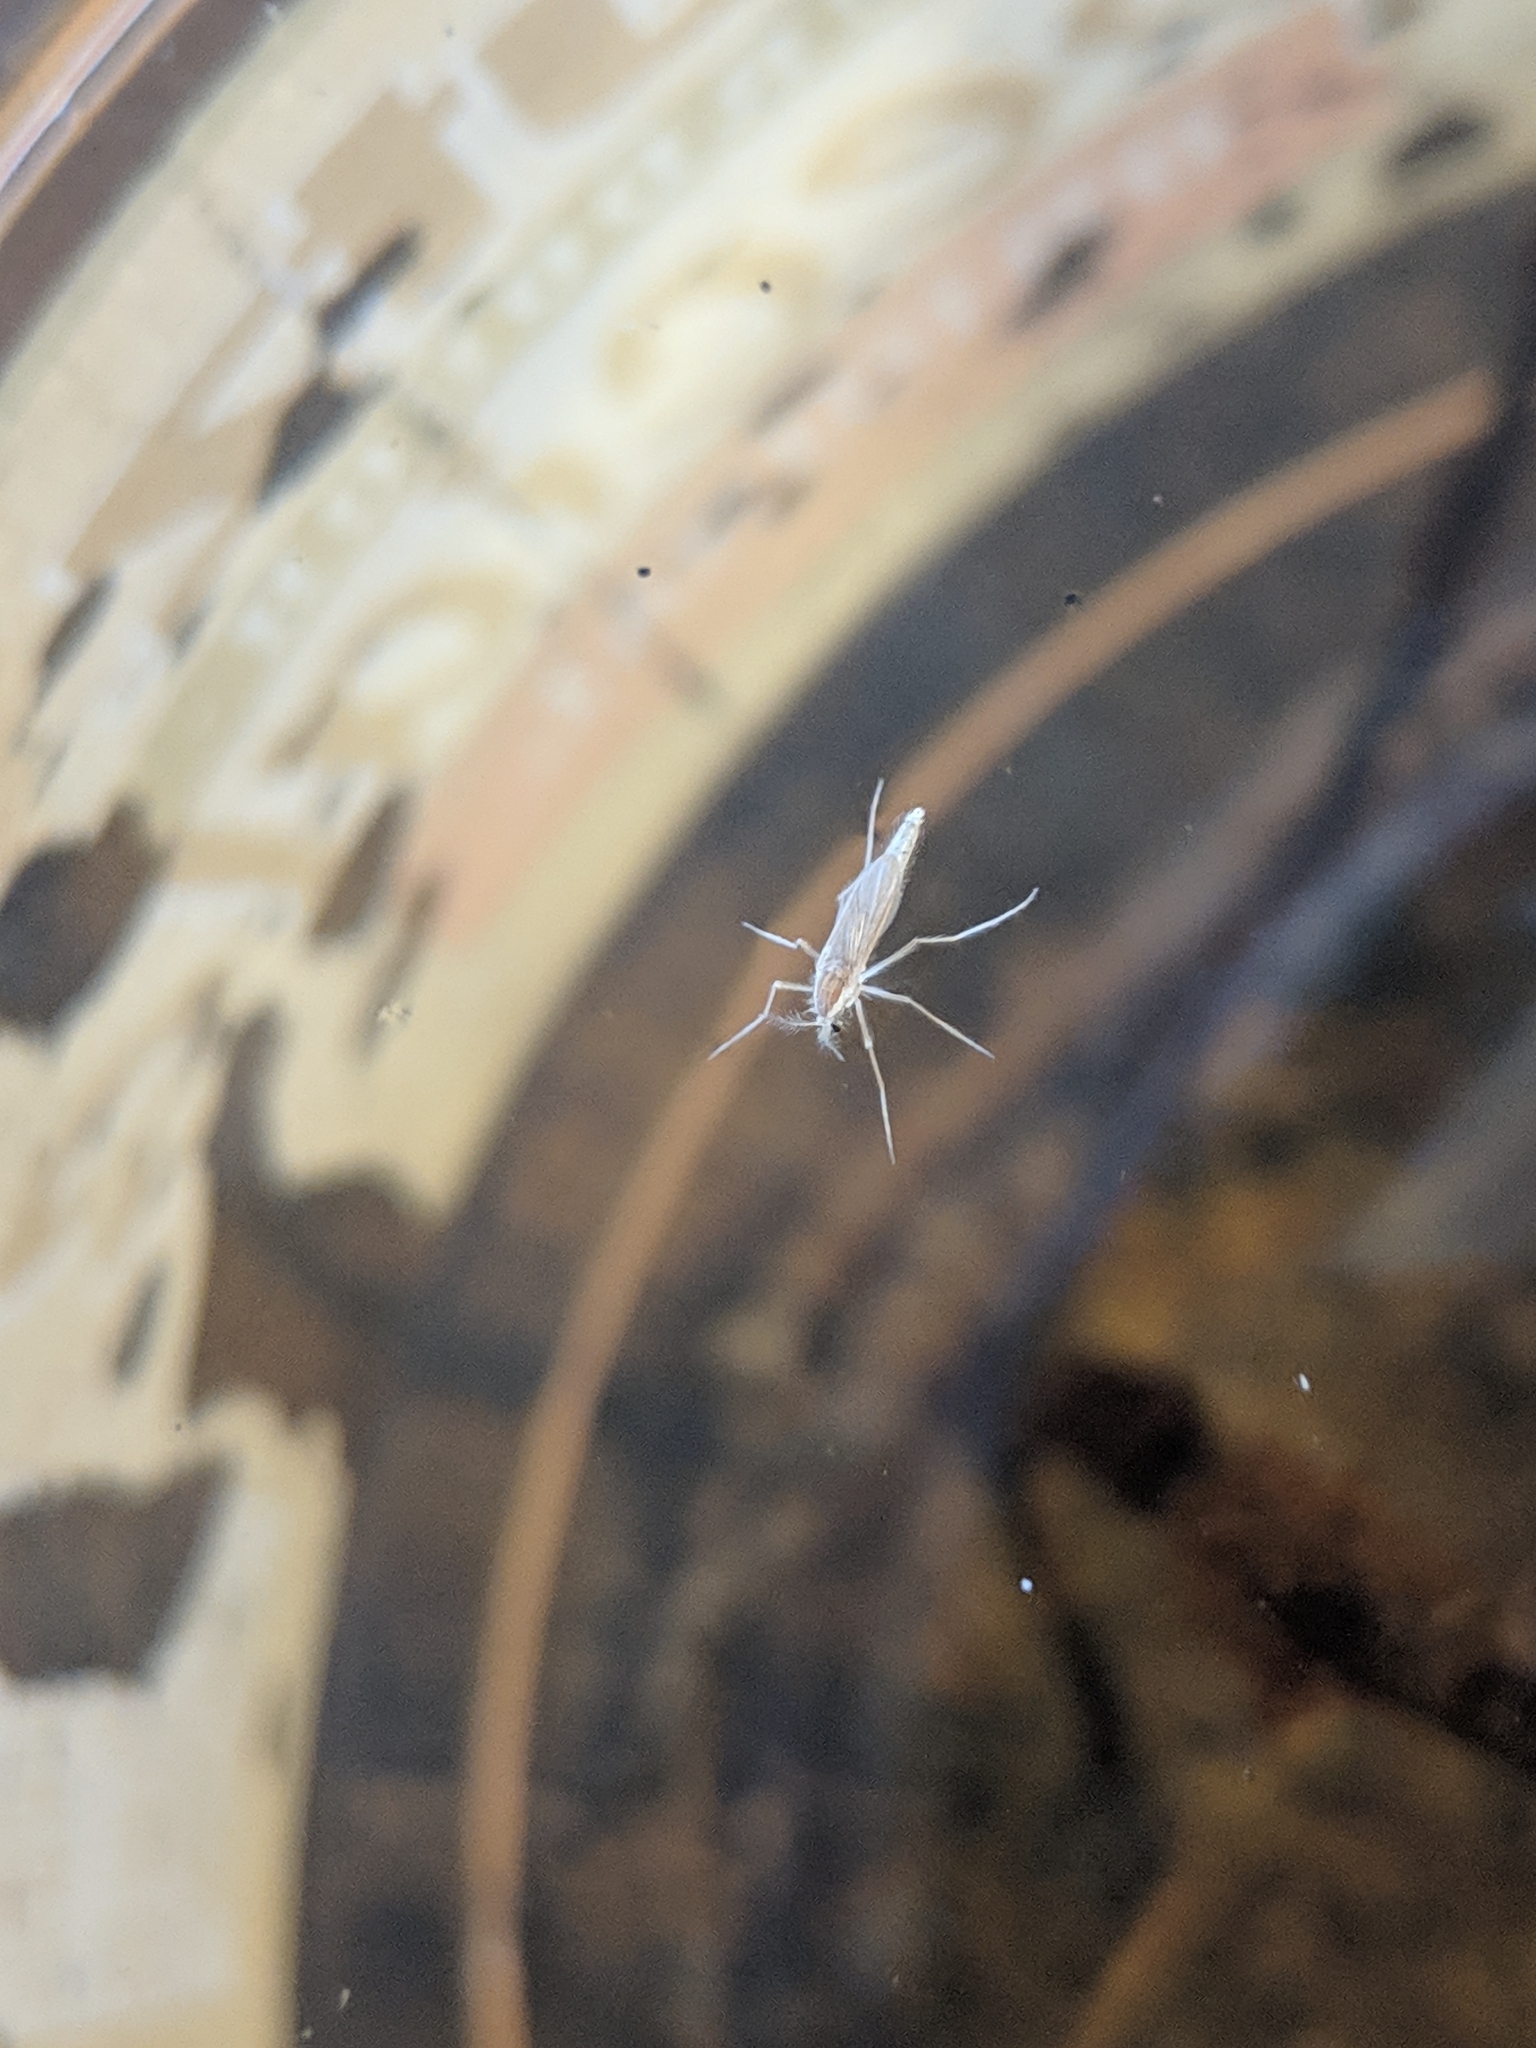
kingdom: Animalia
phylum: Arthropoda
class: Insecta
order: Diptera
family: Chaoboridae
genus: Chaoborus
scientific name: Chaoborus
